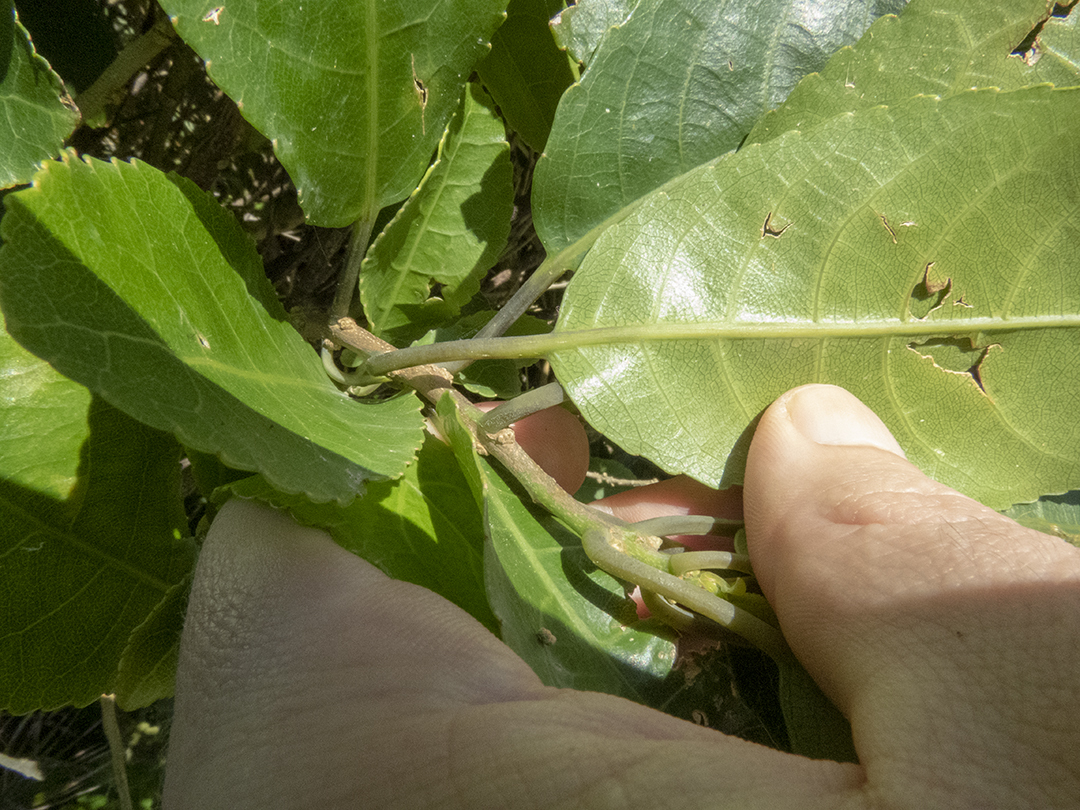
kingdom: Plantae
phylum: Tracheophyta
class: Magnoliopsida
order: Malpighiales
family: Violaceae
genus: Melicytus
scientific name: Melicytus ramiflorus
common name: Mahoe
